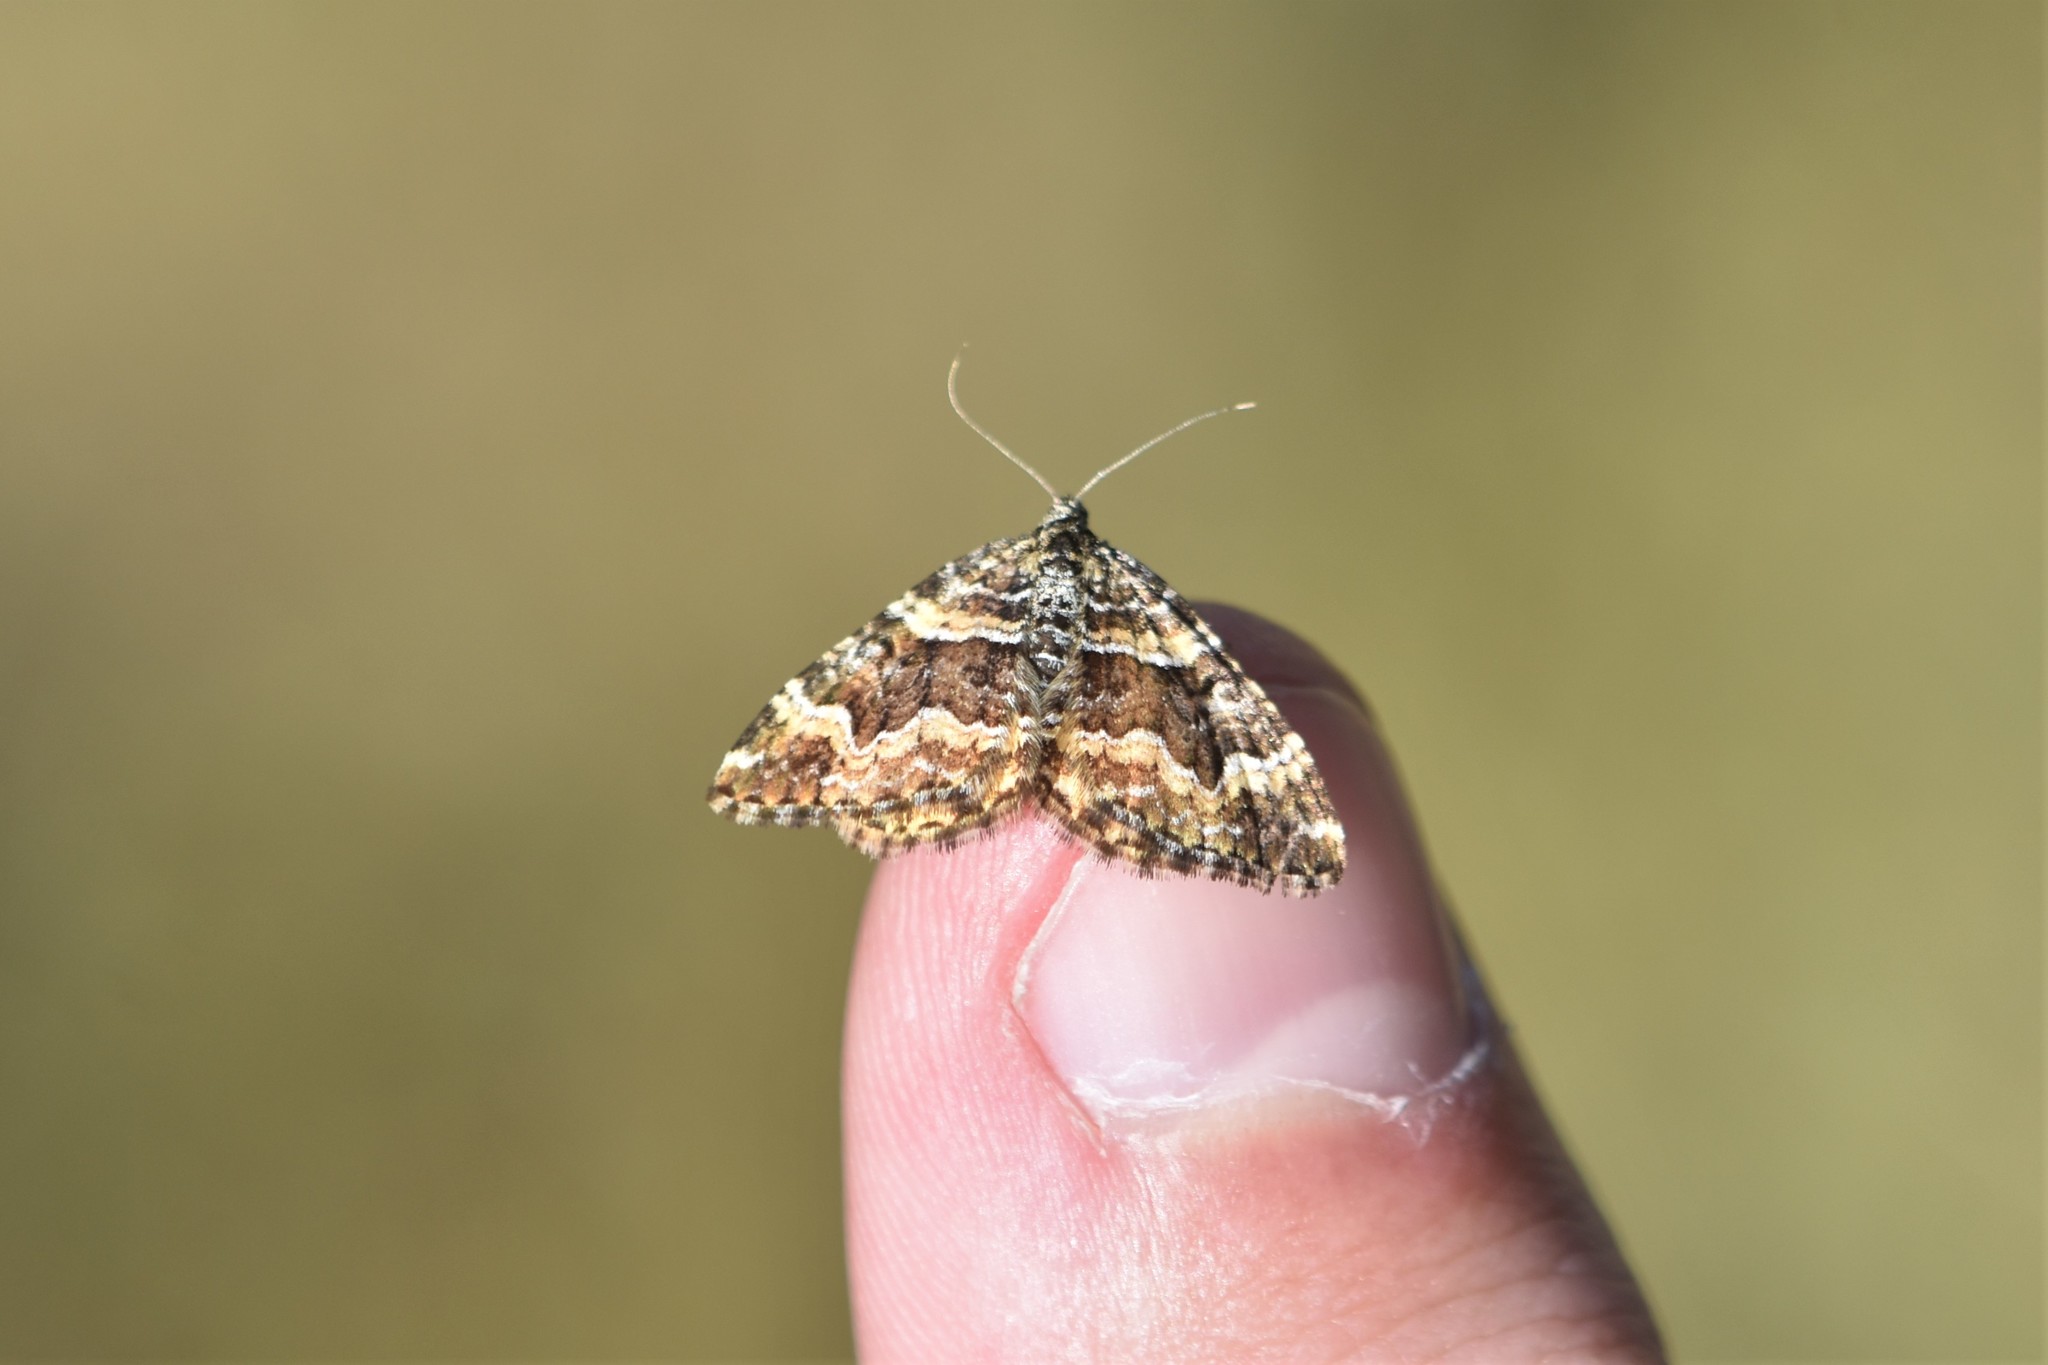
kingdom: Animalia
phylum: Arthropoda
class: Insecta
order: Lepidoptera
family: Geometridae
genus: Epirrhoe
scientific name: Epirrhoe plebeculata
